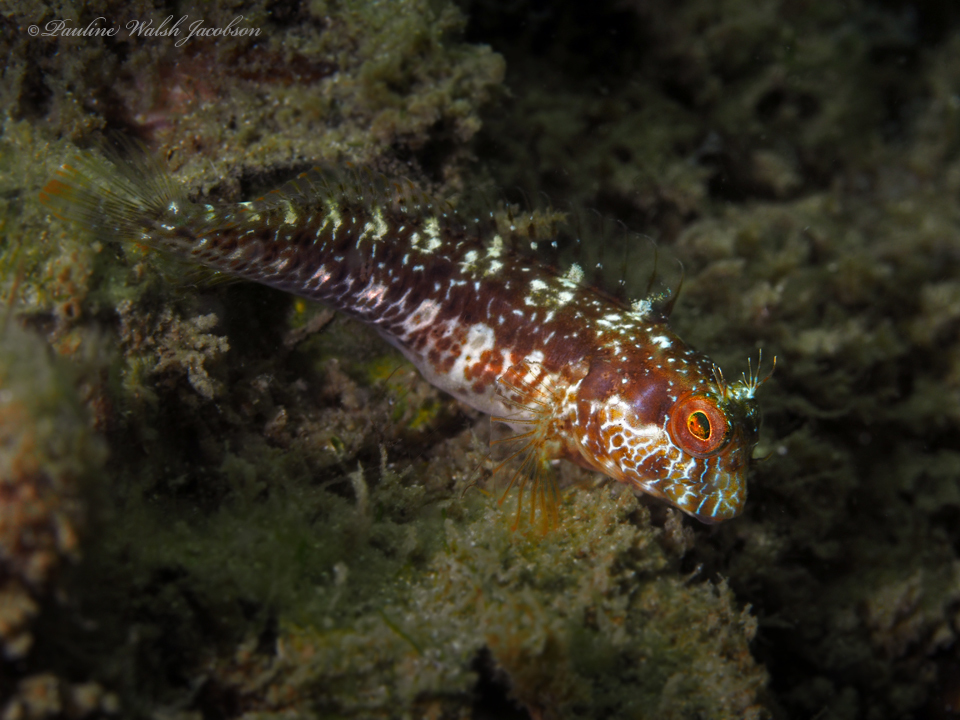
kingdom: Animalia
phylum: Chordata
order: Perciformes
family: Blenniidae
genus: Parablennius
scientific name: Parablennius marmoreus
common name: Seaweed blenny
